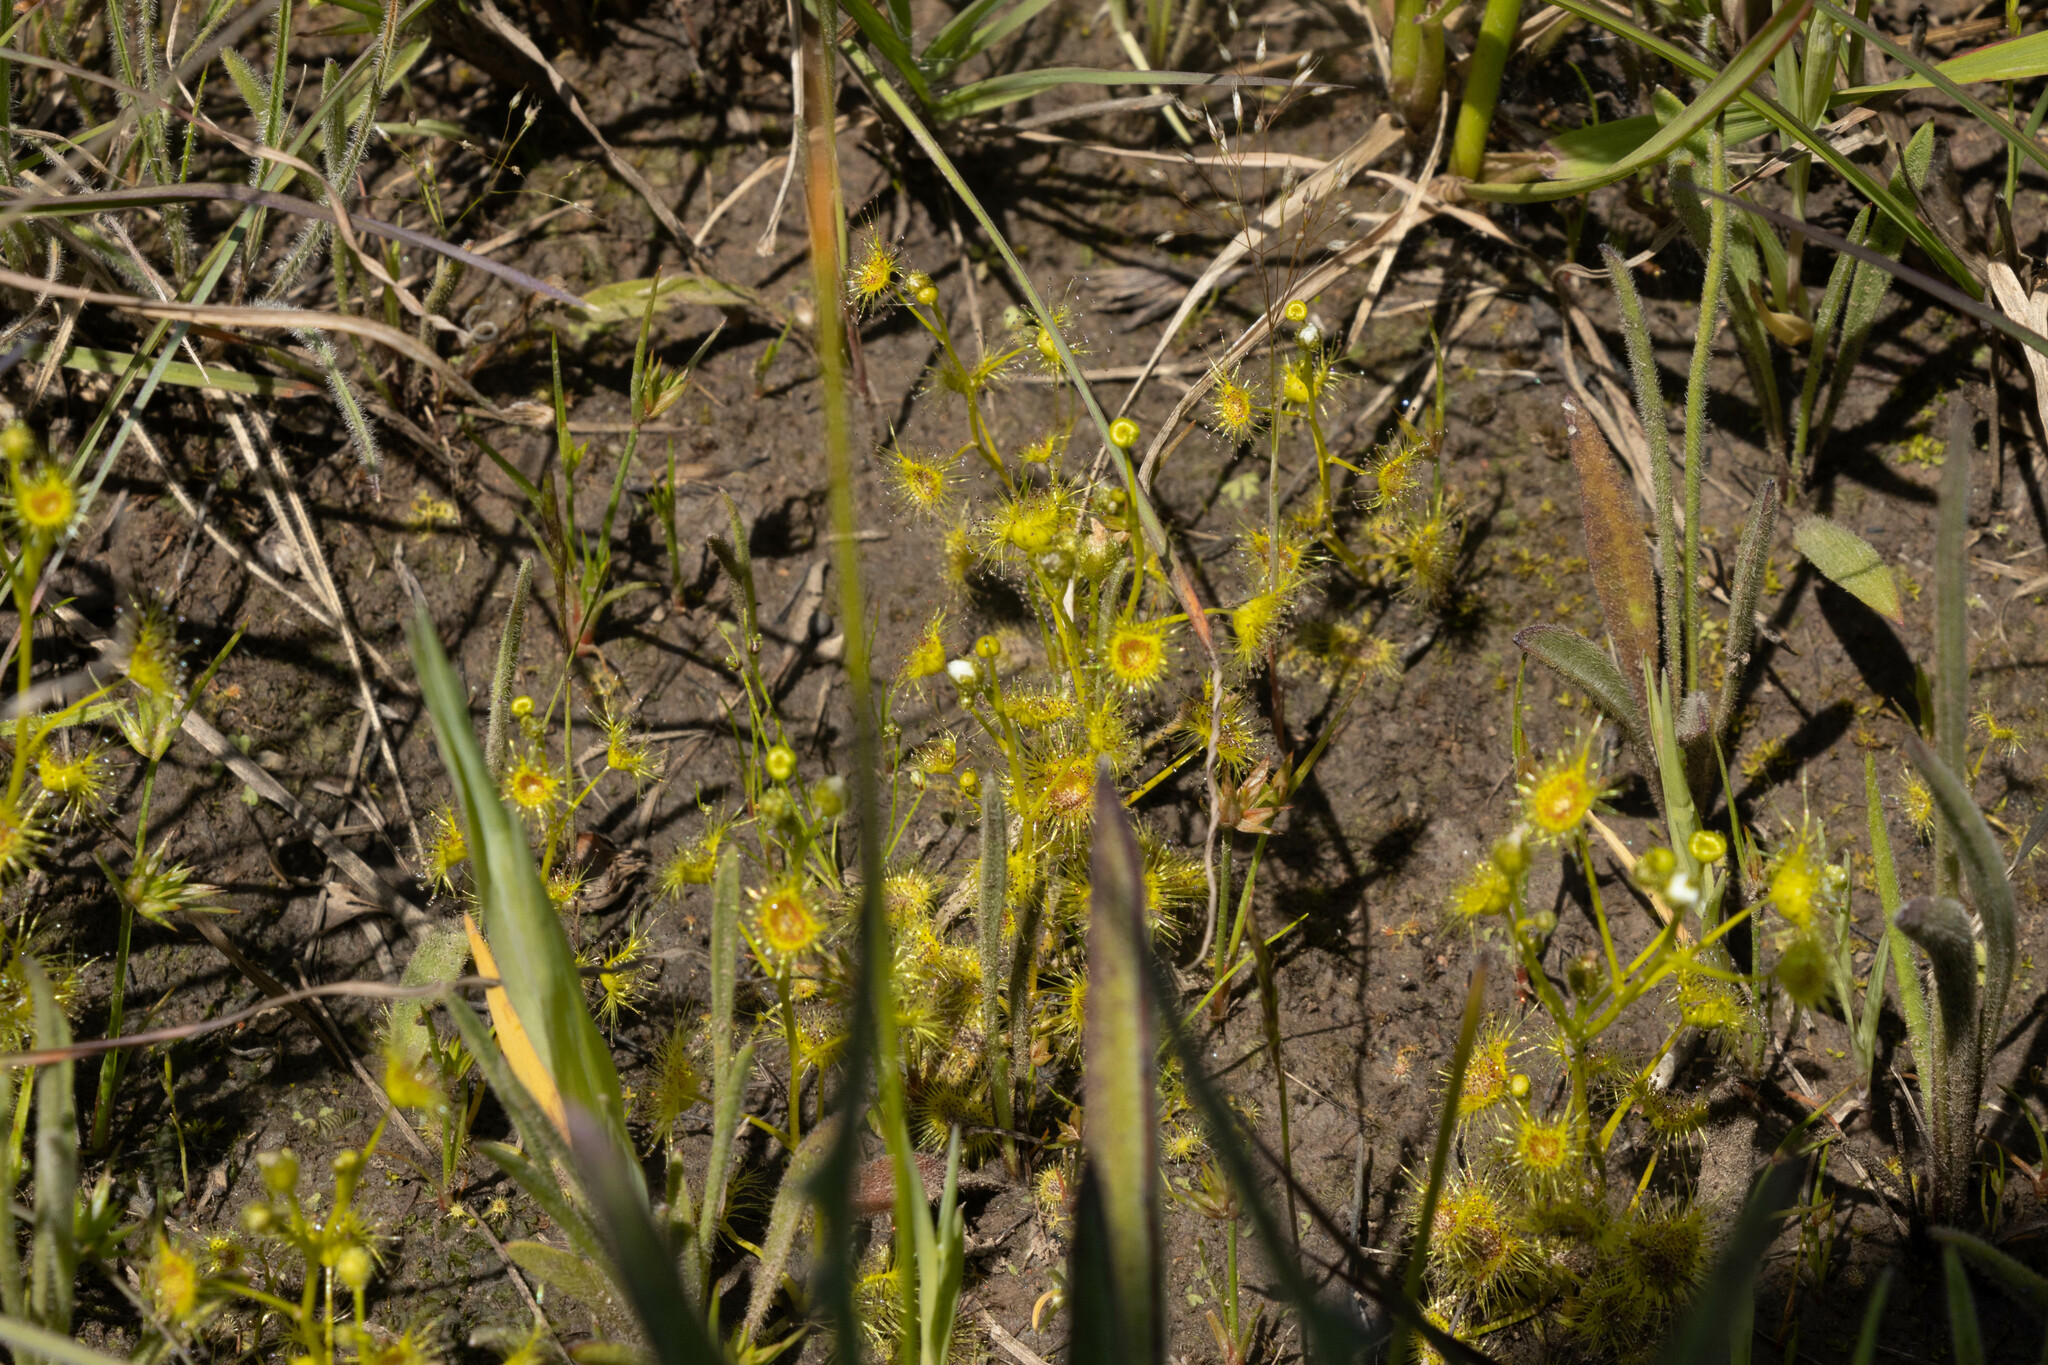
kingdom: Plantae
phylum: Tracheophyta
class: Magnoliopsida
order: Caryophyllales
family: Droseraceae
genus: Drosera
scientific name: Drosera hookeri
